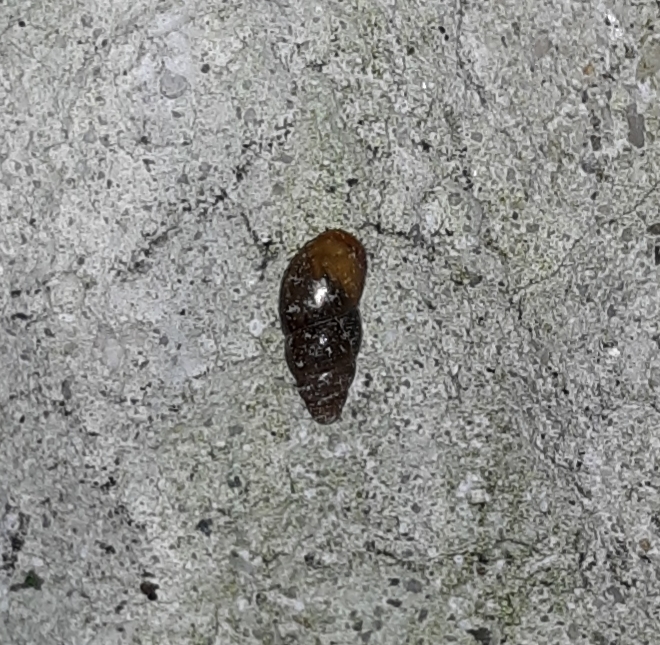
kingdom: Animalia
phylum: Mollusca
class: Gastropoda
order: Stylommatophora
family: Cochlicopidae
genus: Cochlicopa
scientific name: Cochlicopa lubrica
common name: Glossy pillar snail
